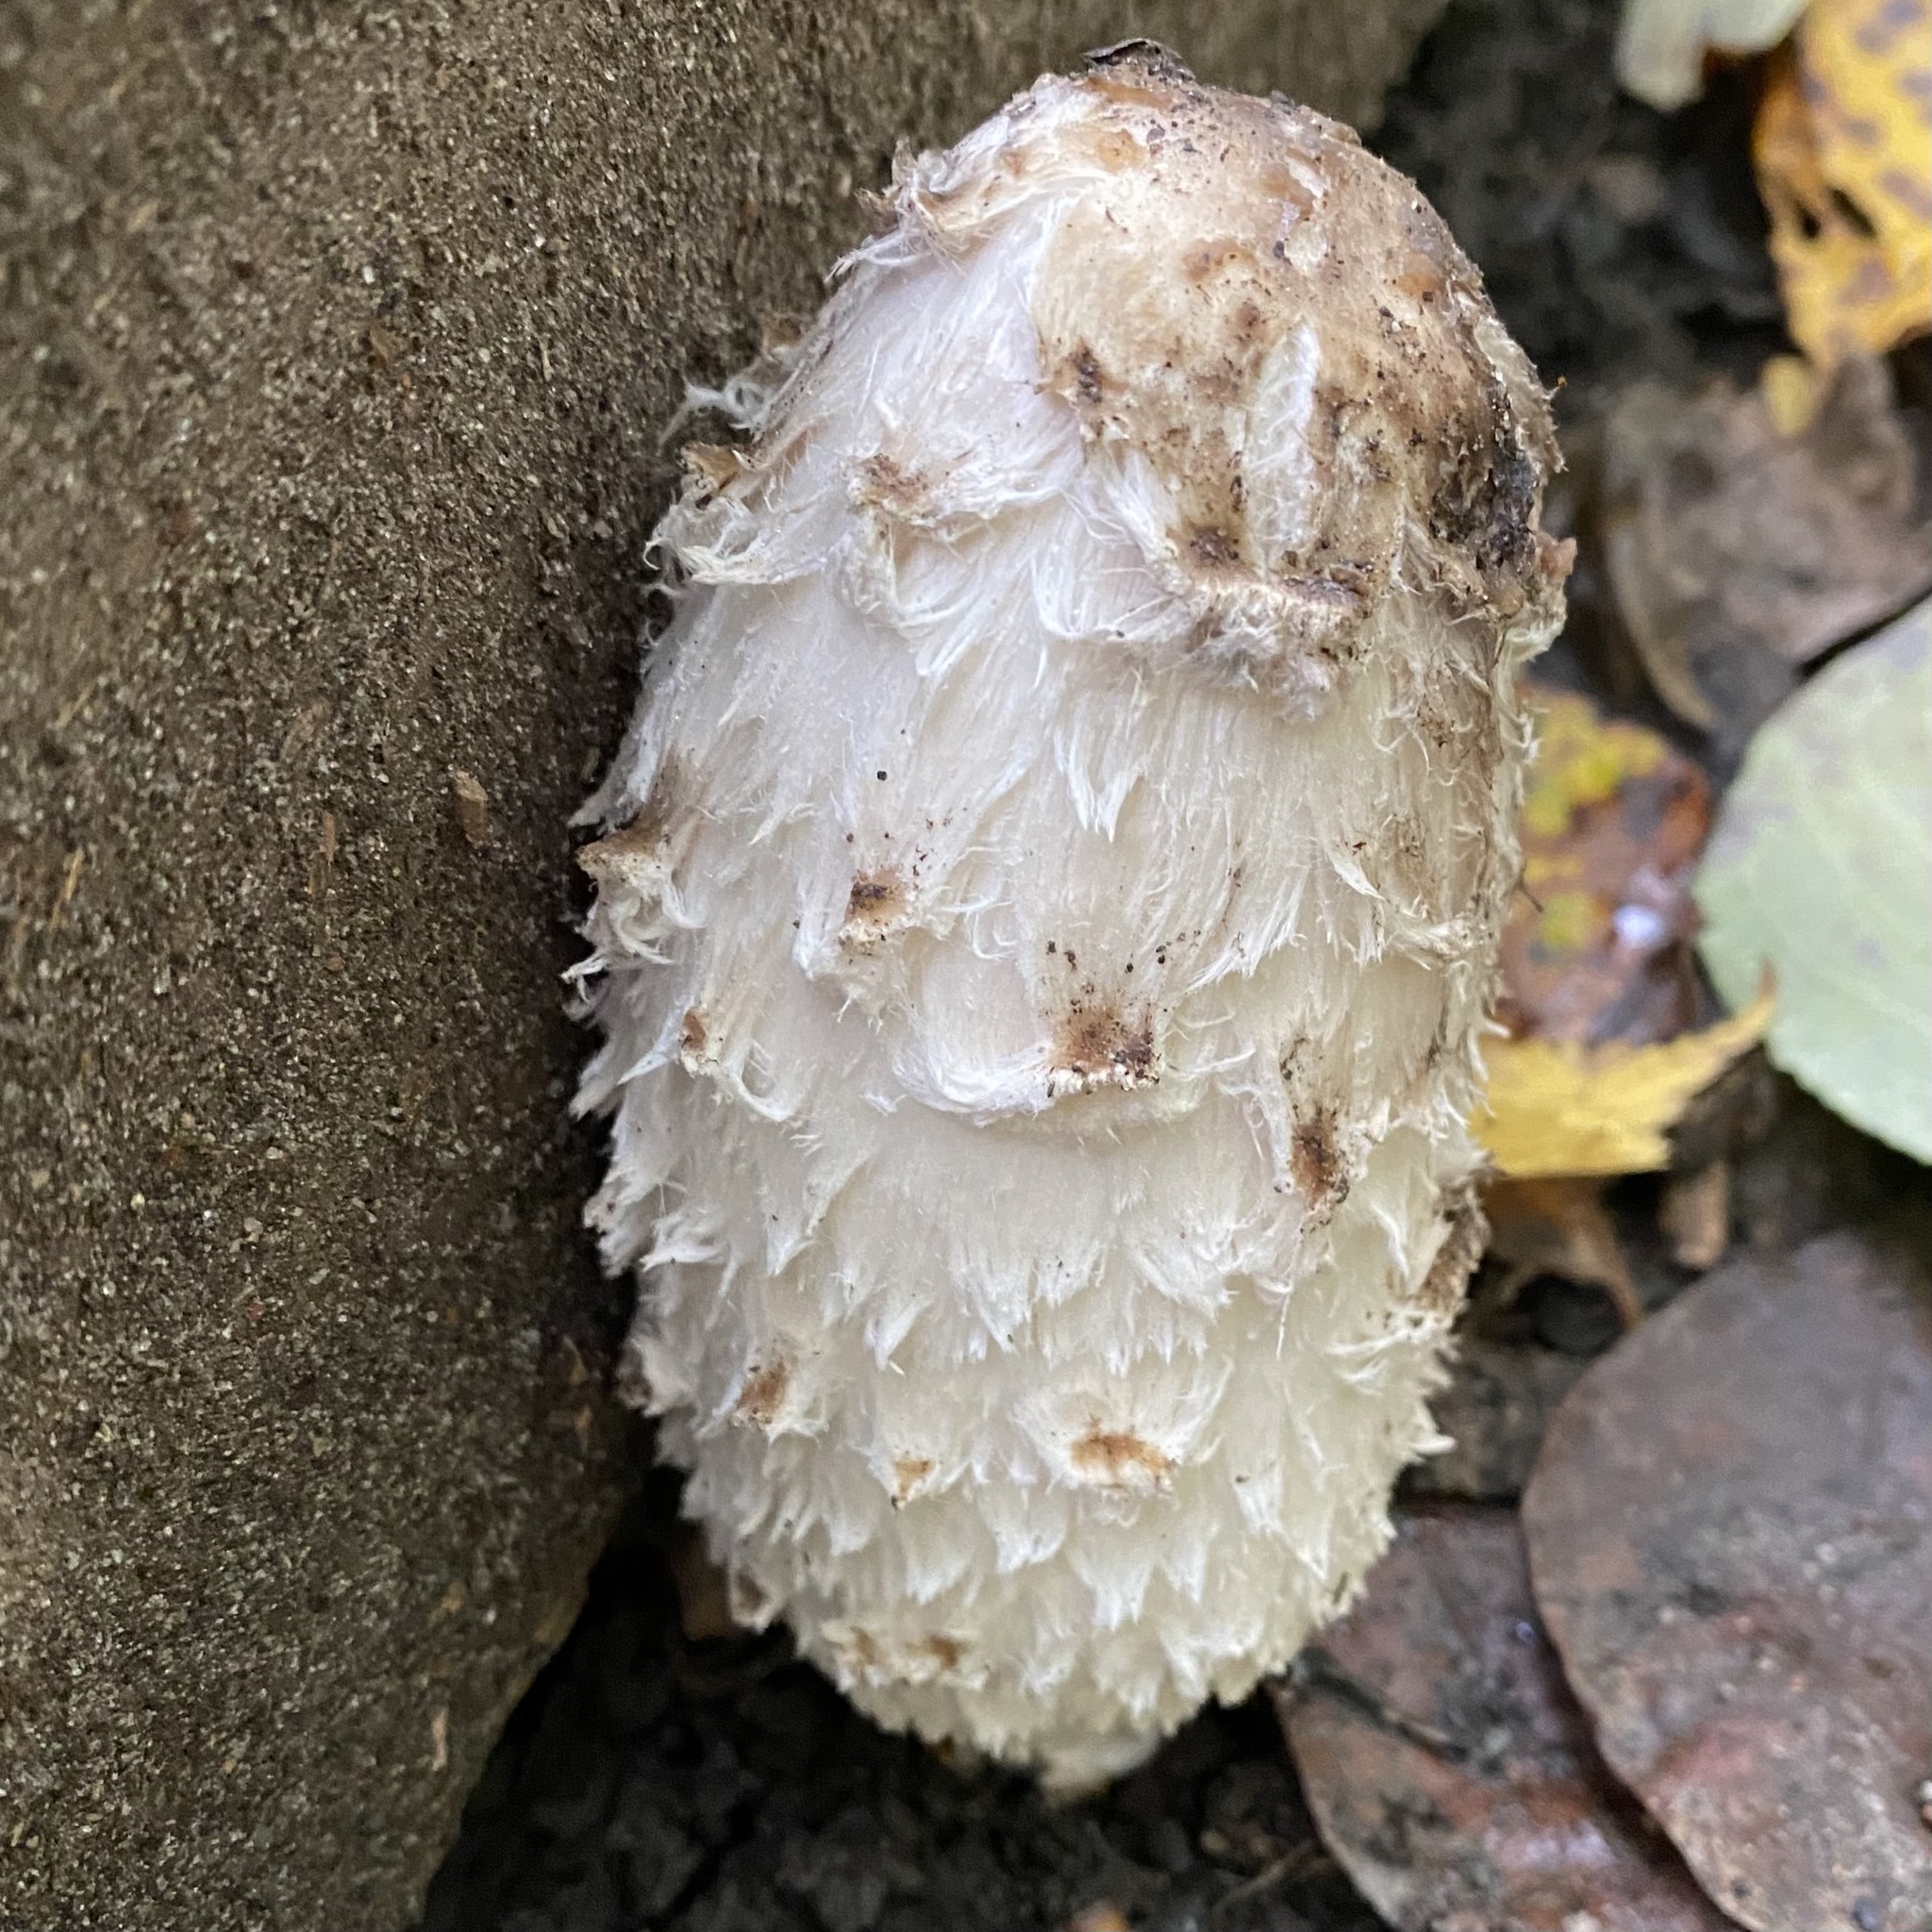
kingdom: Fungi
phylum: Basidiomycota
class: Agaricomycetes
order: Agaricales
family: Agaricaceae
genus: Coprinus
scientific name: Coprinus comatus
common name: Lawyer's wig
